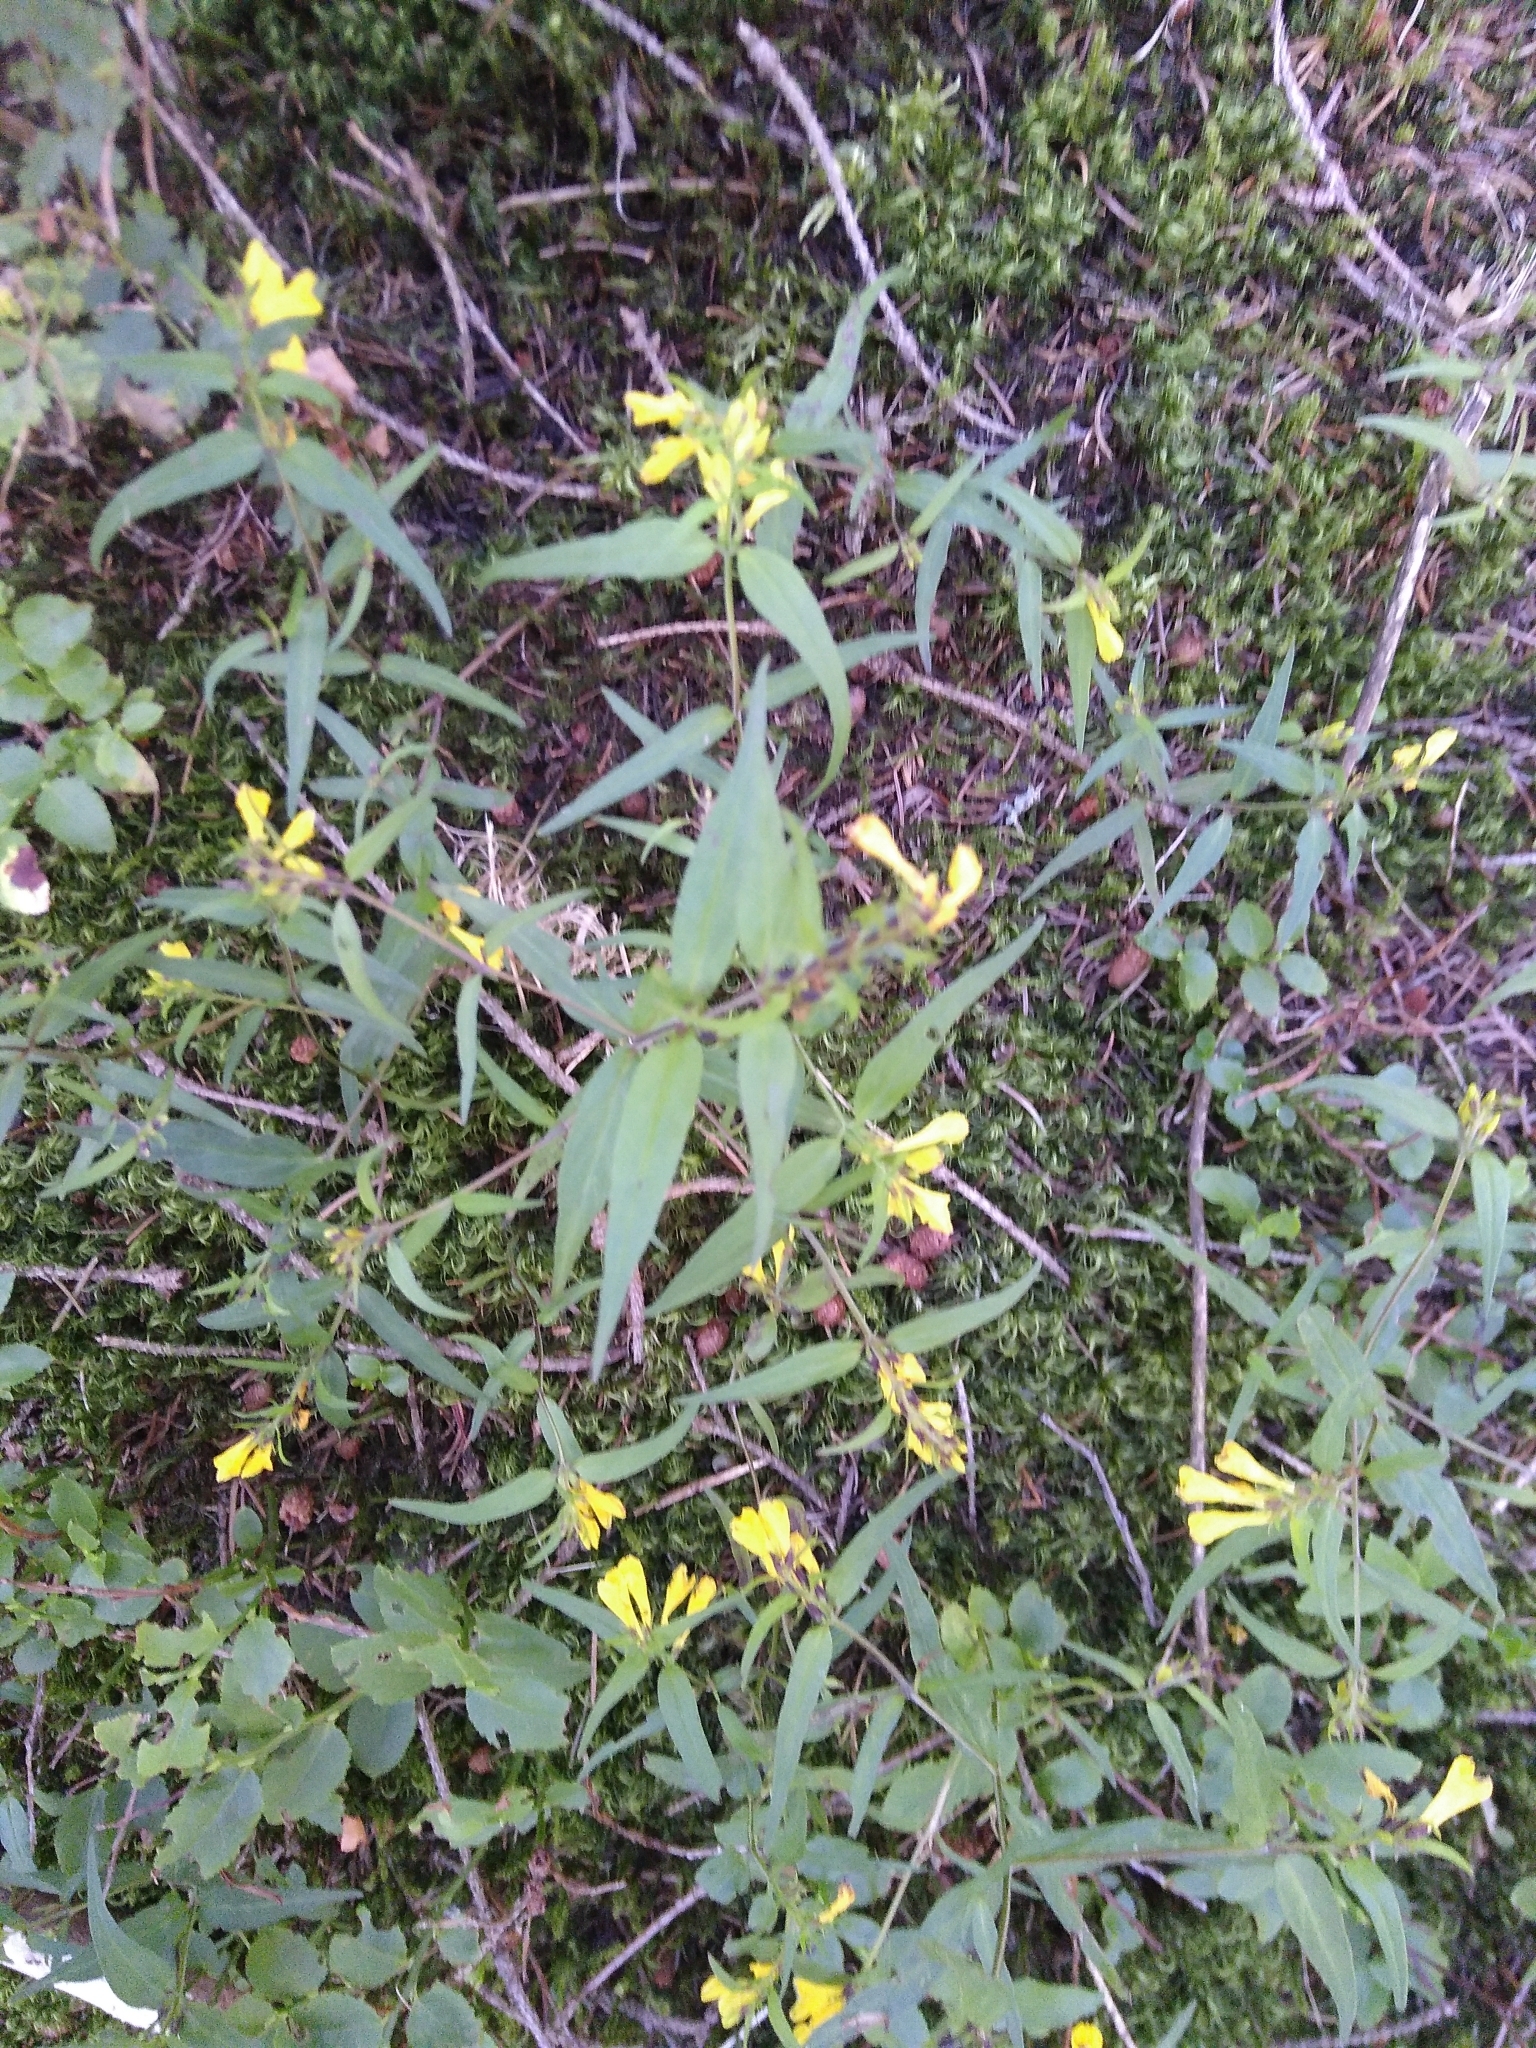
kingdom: Plantae
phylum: Tracheophyta
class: Magnoliopsida
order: Lamiales
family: Orobanchaceae
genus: Melampyrum
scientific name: Melampyrum pratense
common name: Common cow-wheat
